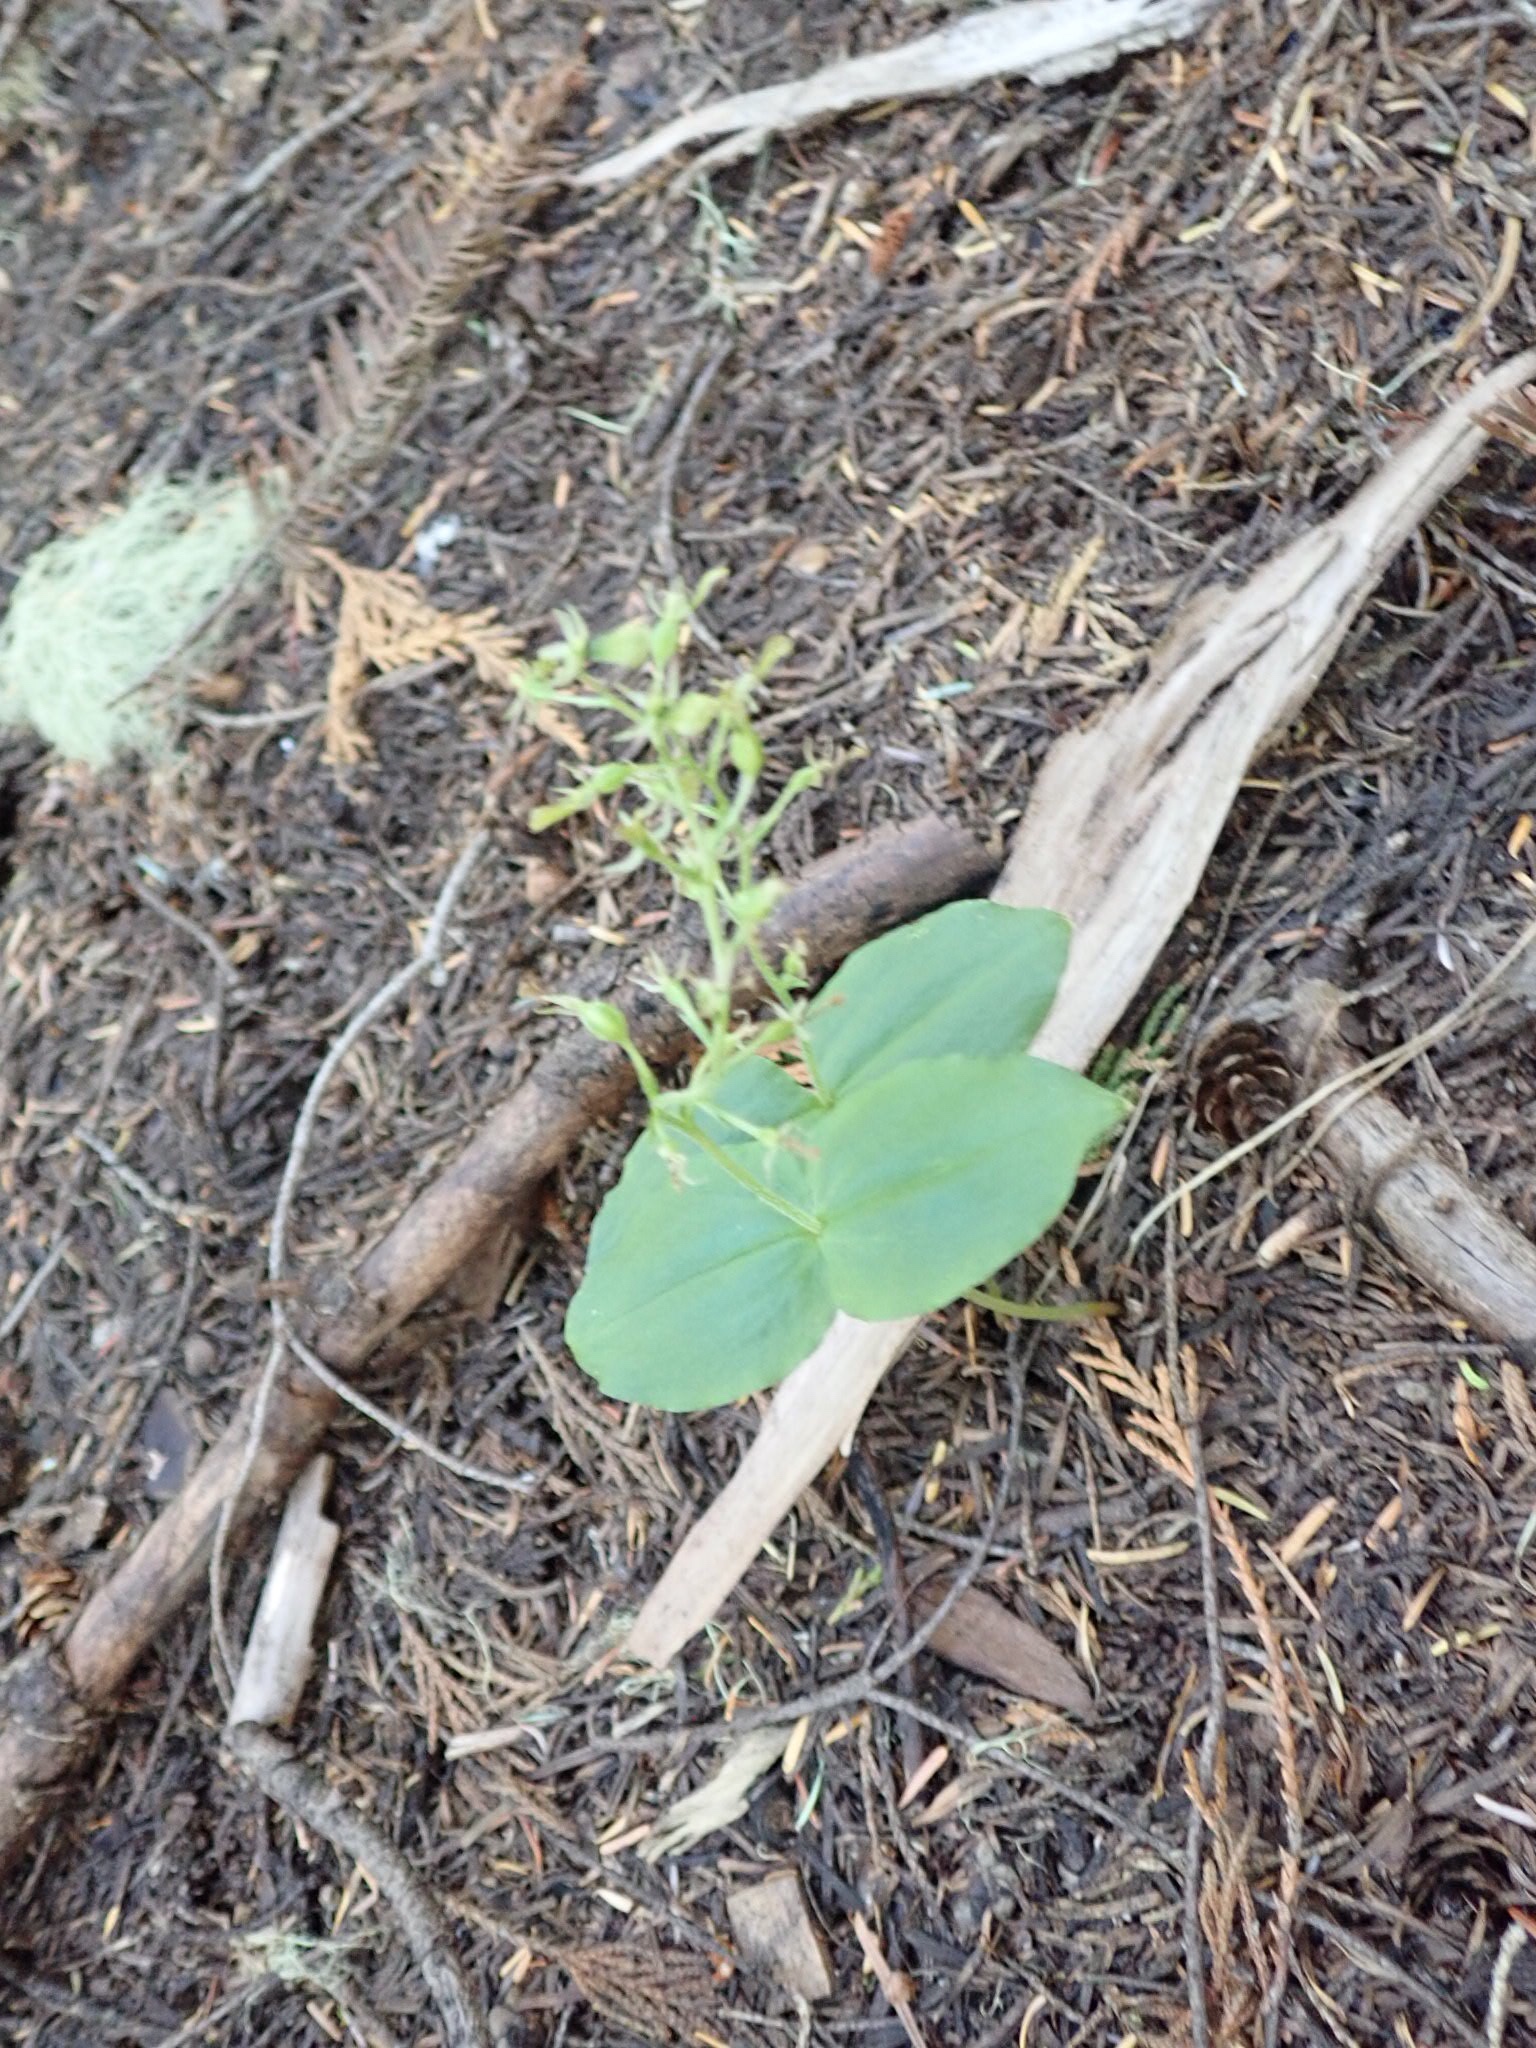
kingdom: Plantae
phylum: Tracheophyta
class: Liliopsida
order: Asparagales
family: Orchidaceae
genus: Neottia
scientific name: Neottia banksiana
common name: Northwestern twayblade
